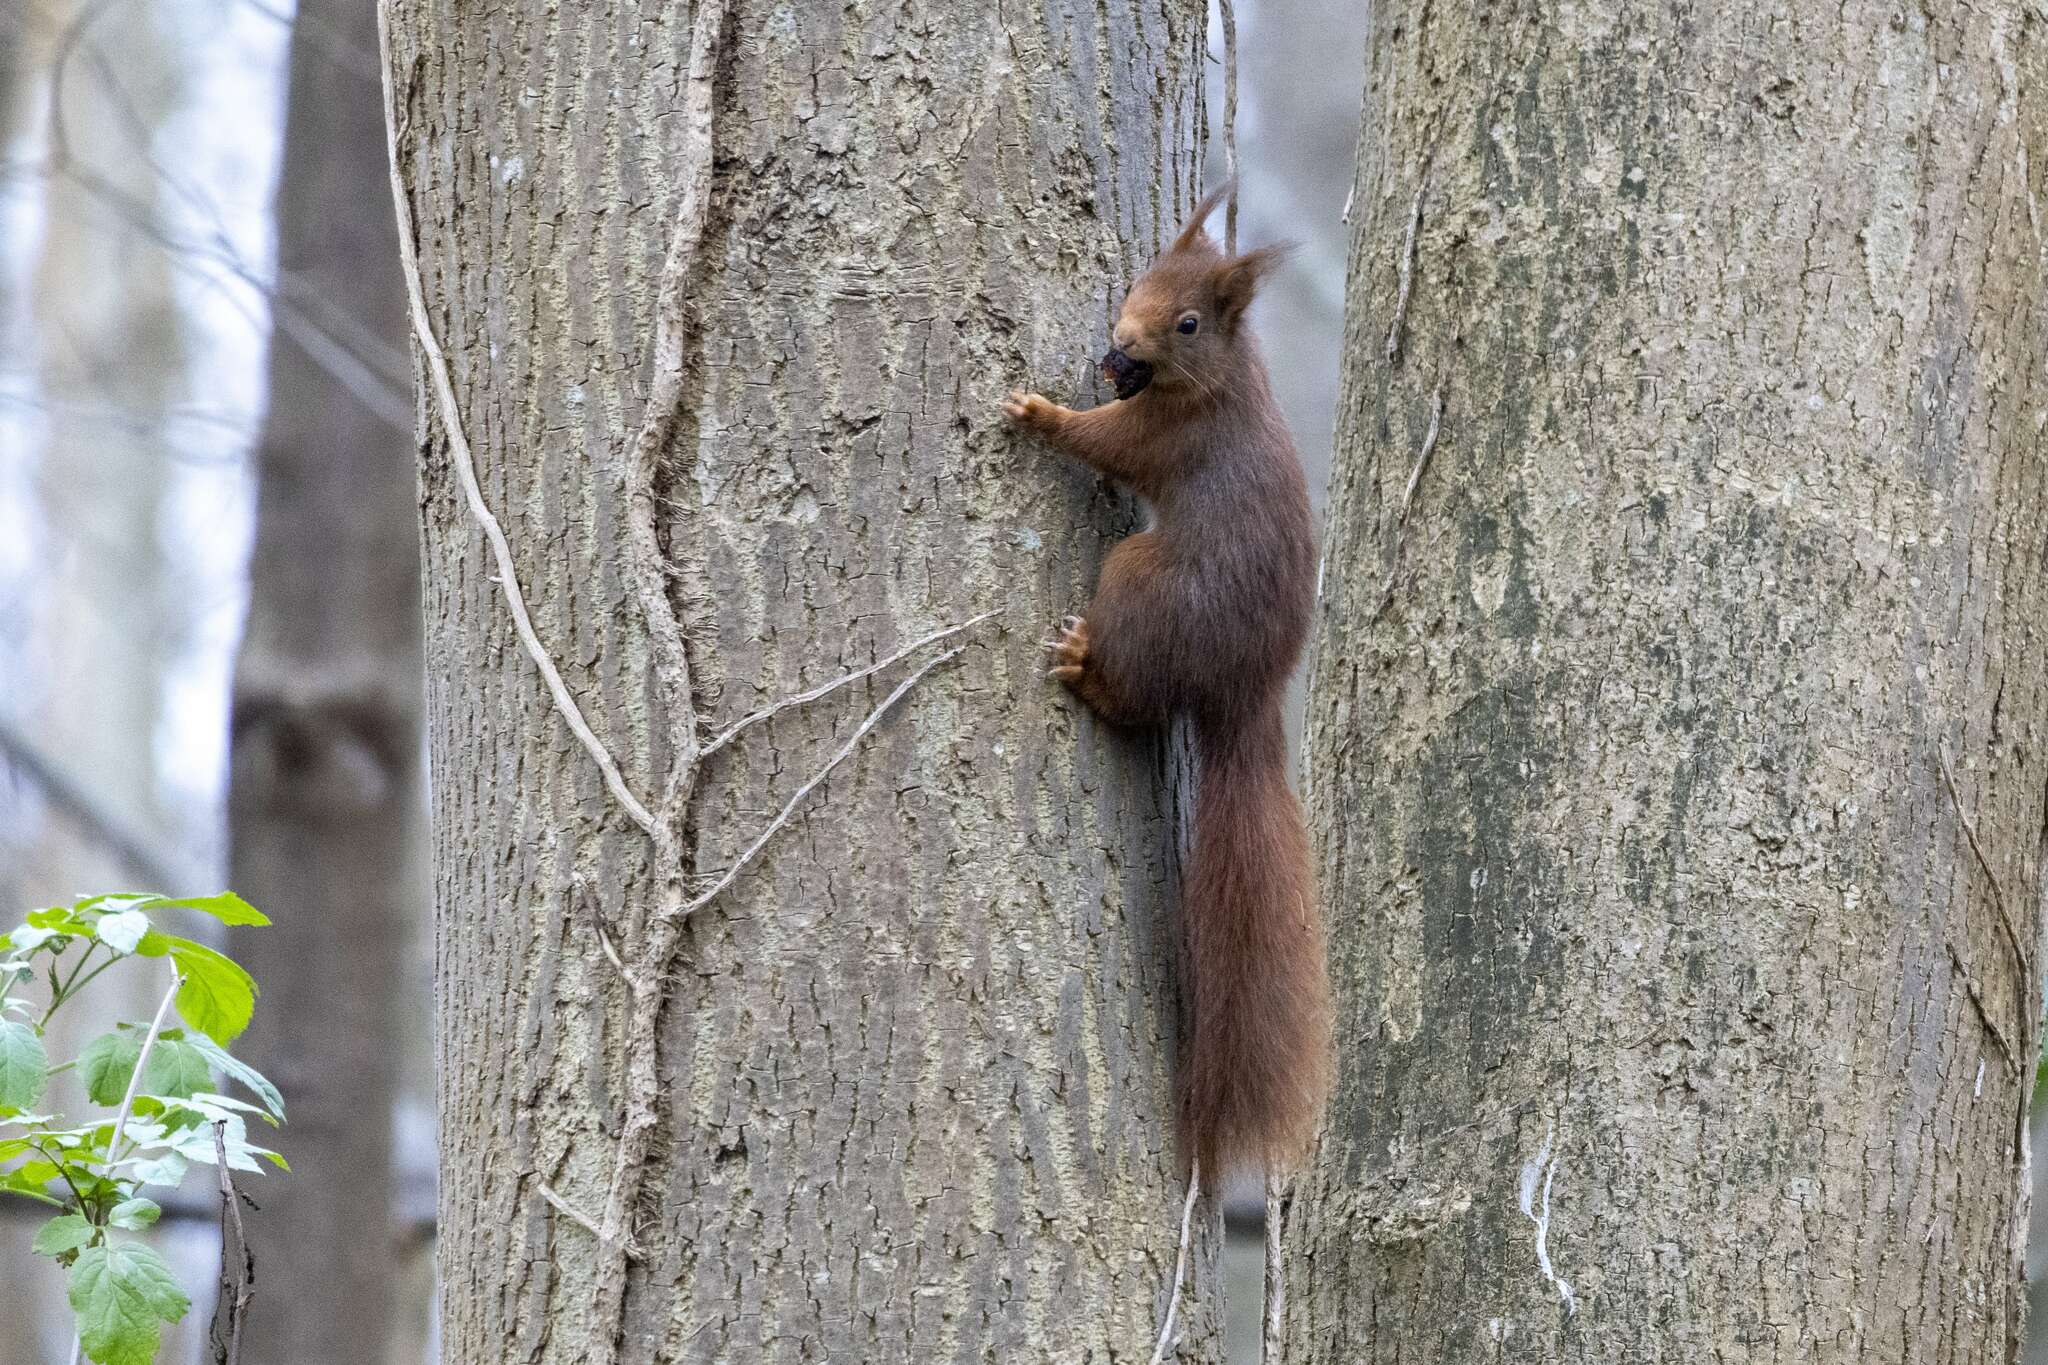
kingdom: Animalia
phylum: Chordata
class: Mammalia
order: Rodentia
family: Sciuridae
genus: Sciurus
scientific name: Sciurus vulgaris
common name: Eurasian red squirrel
